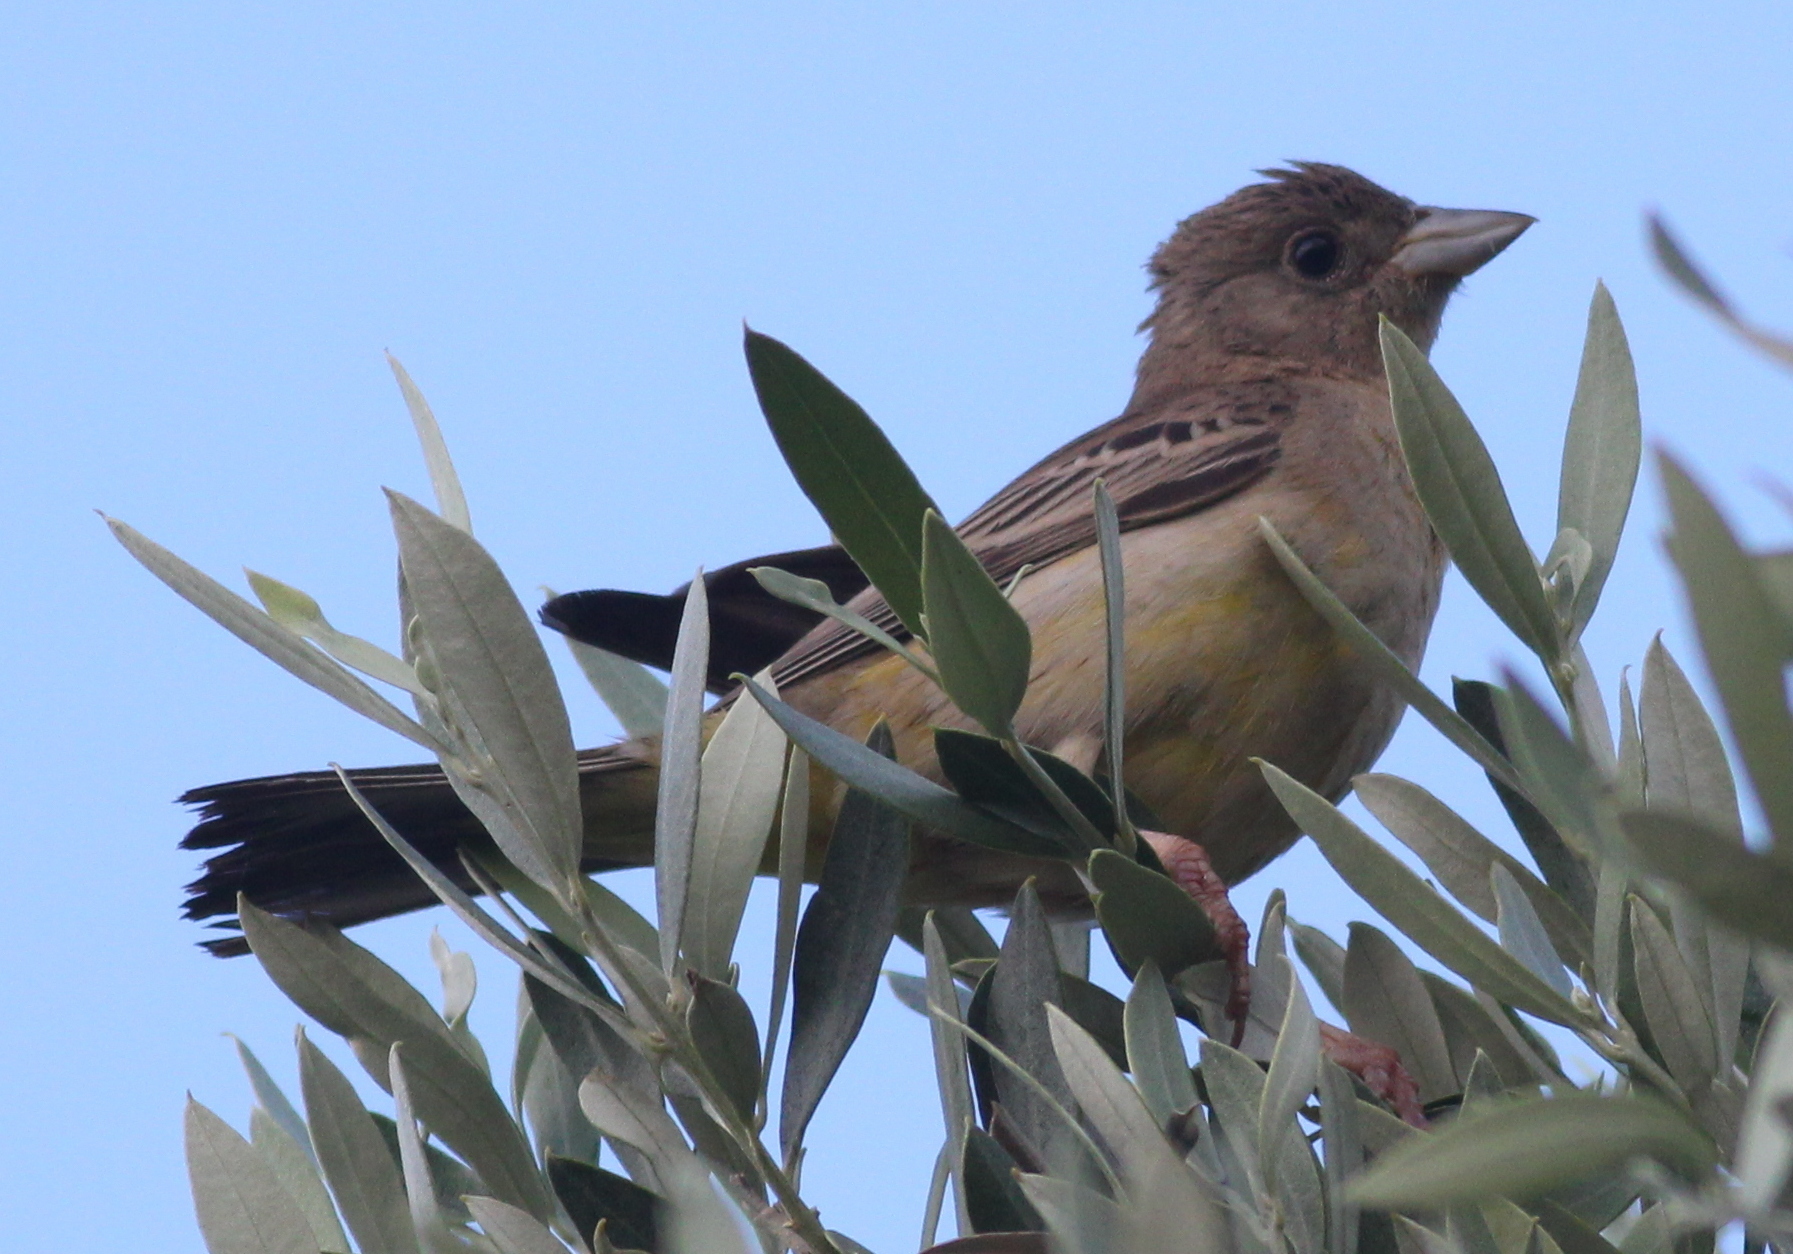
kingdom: Animalia
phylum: Chordata
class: Aves
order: Passeriformes
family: Emberizidae
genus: Emberiza
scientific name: Emberiza melanocephala
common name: Black-headed bunting
